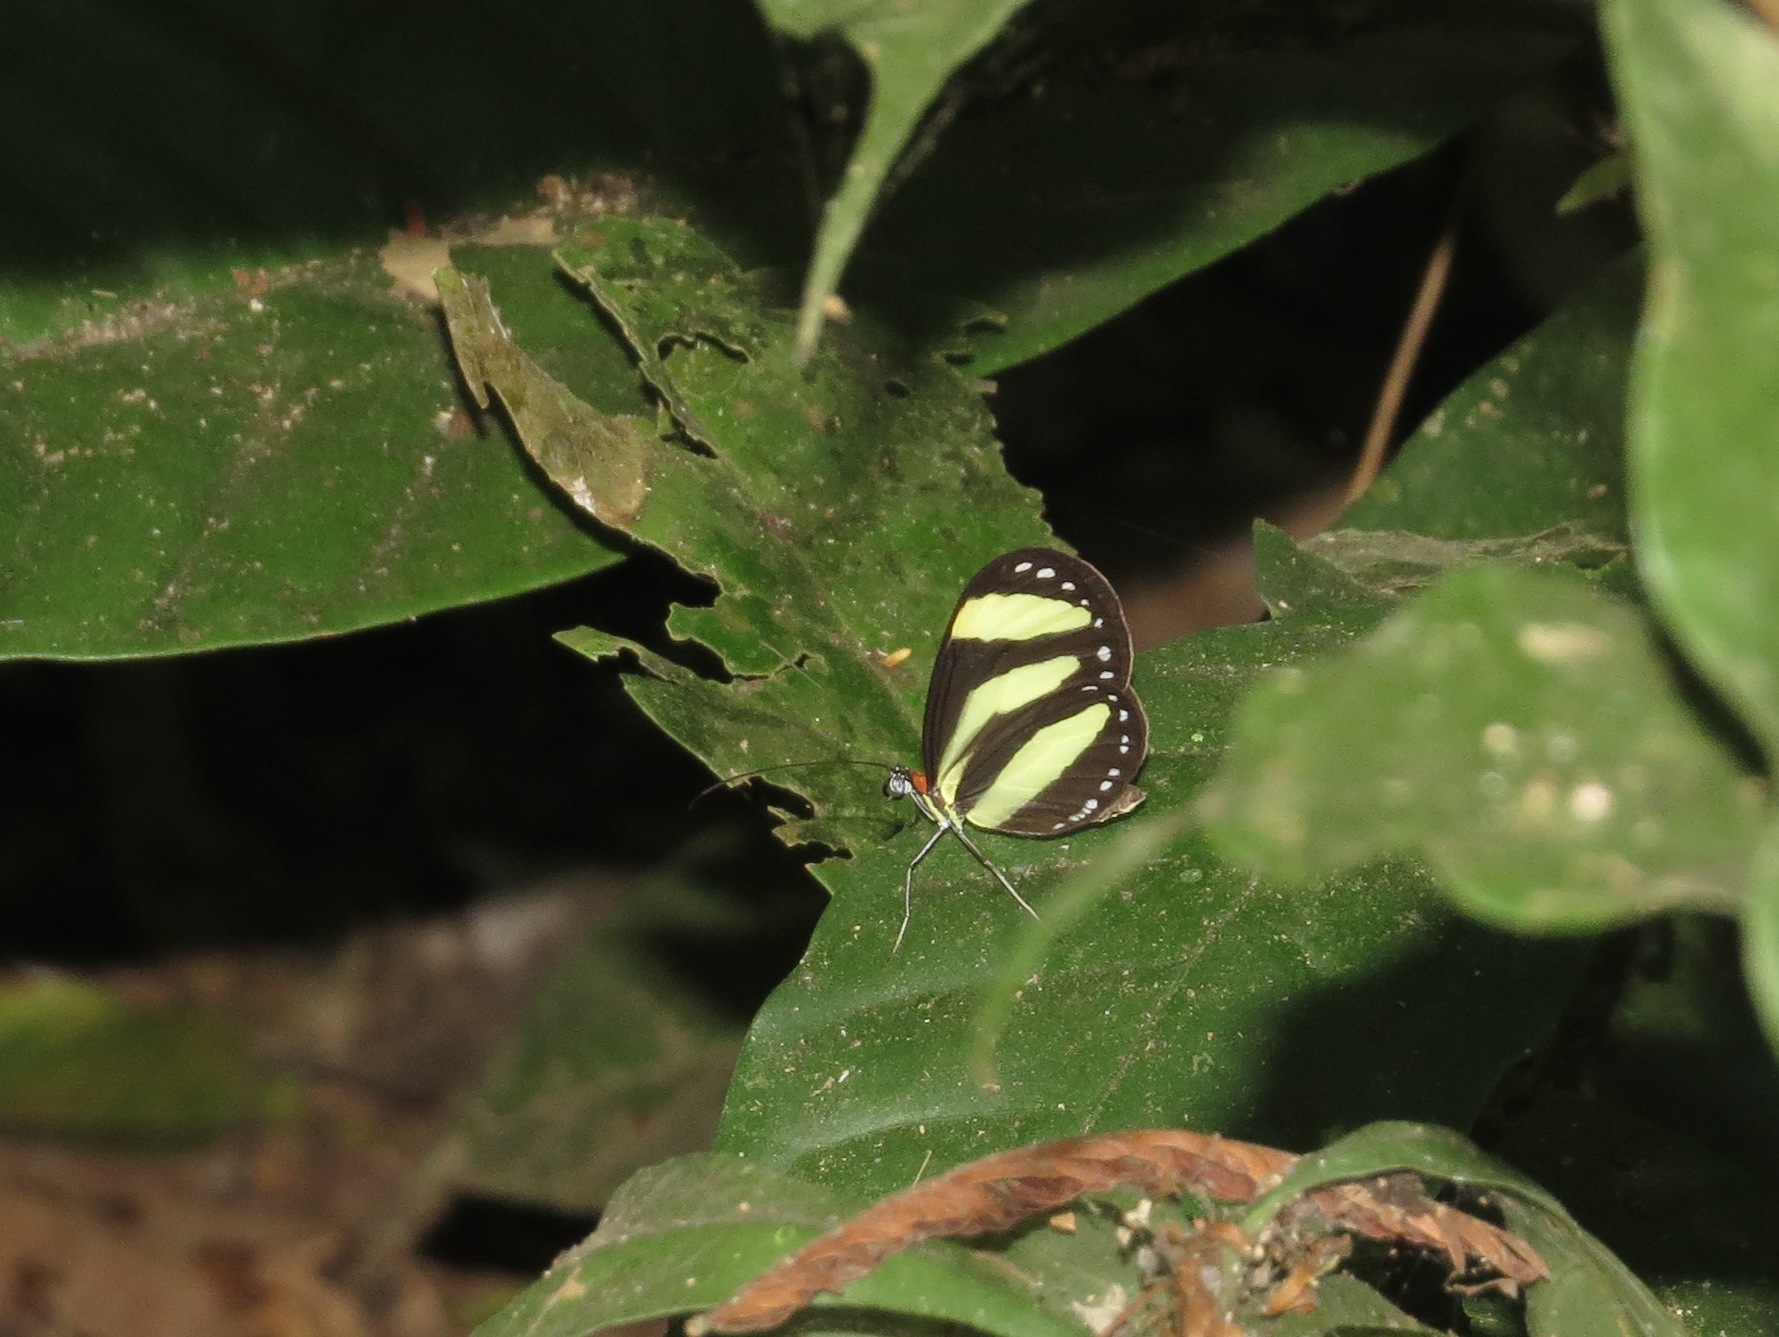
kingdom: Animalia
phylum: Arthropoda
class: Insecta
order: Lepidoptera
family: Nymphalidae
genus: Aeria
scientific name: Aeria eurimedia
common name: Banded tigerwing
